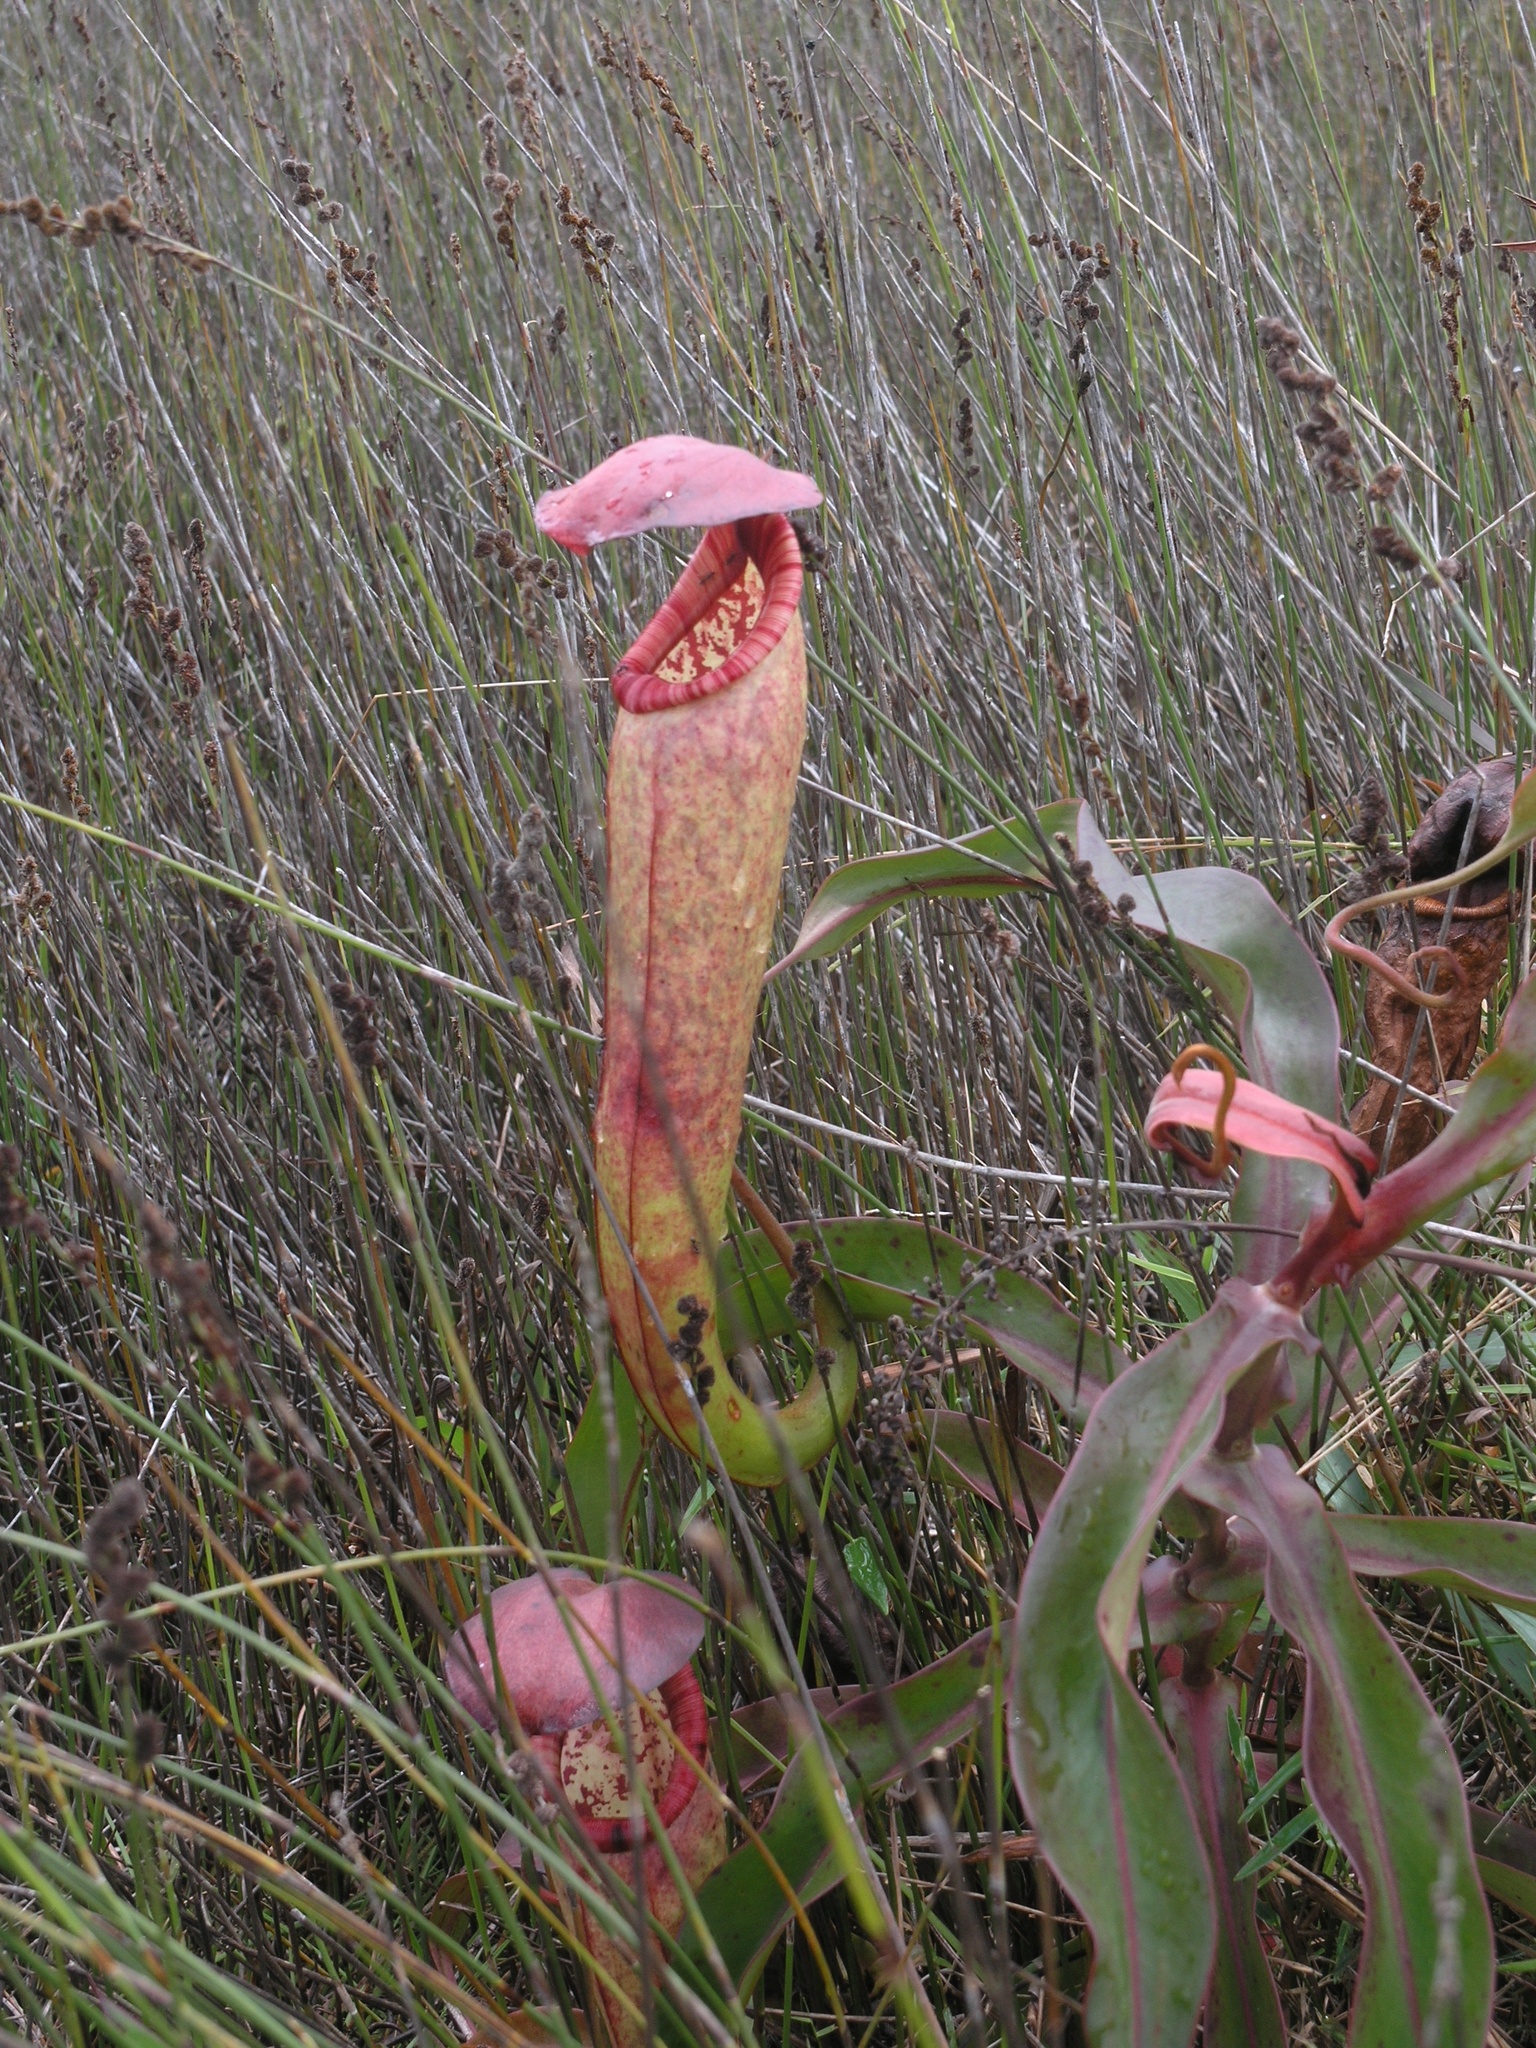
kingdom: Plantae
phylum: Tracheophyta
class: Magnoliopsida
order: Caryophyllales
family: Nepenthaceae
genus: Nepenthes
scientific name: Nepenthes bokorensis
